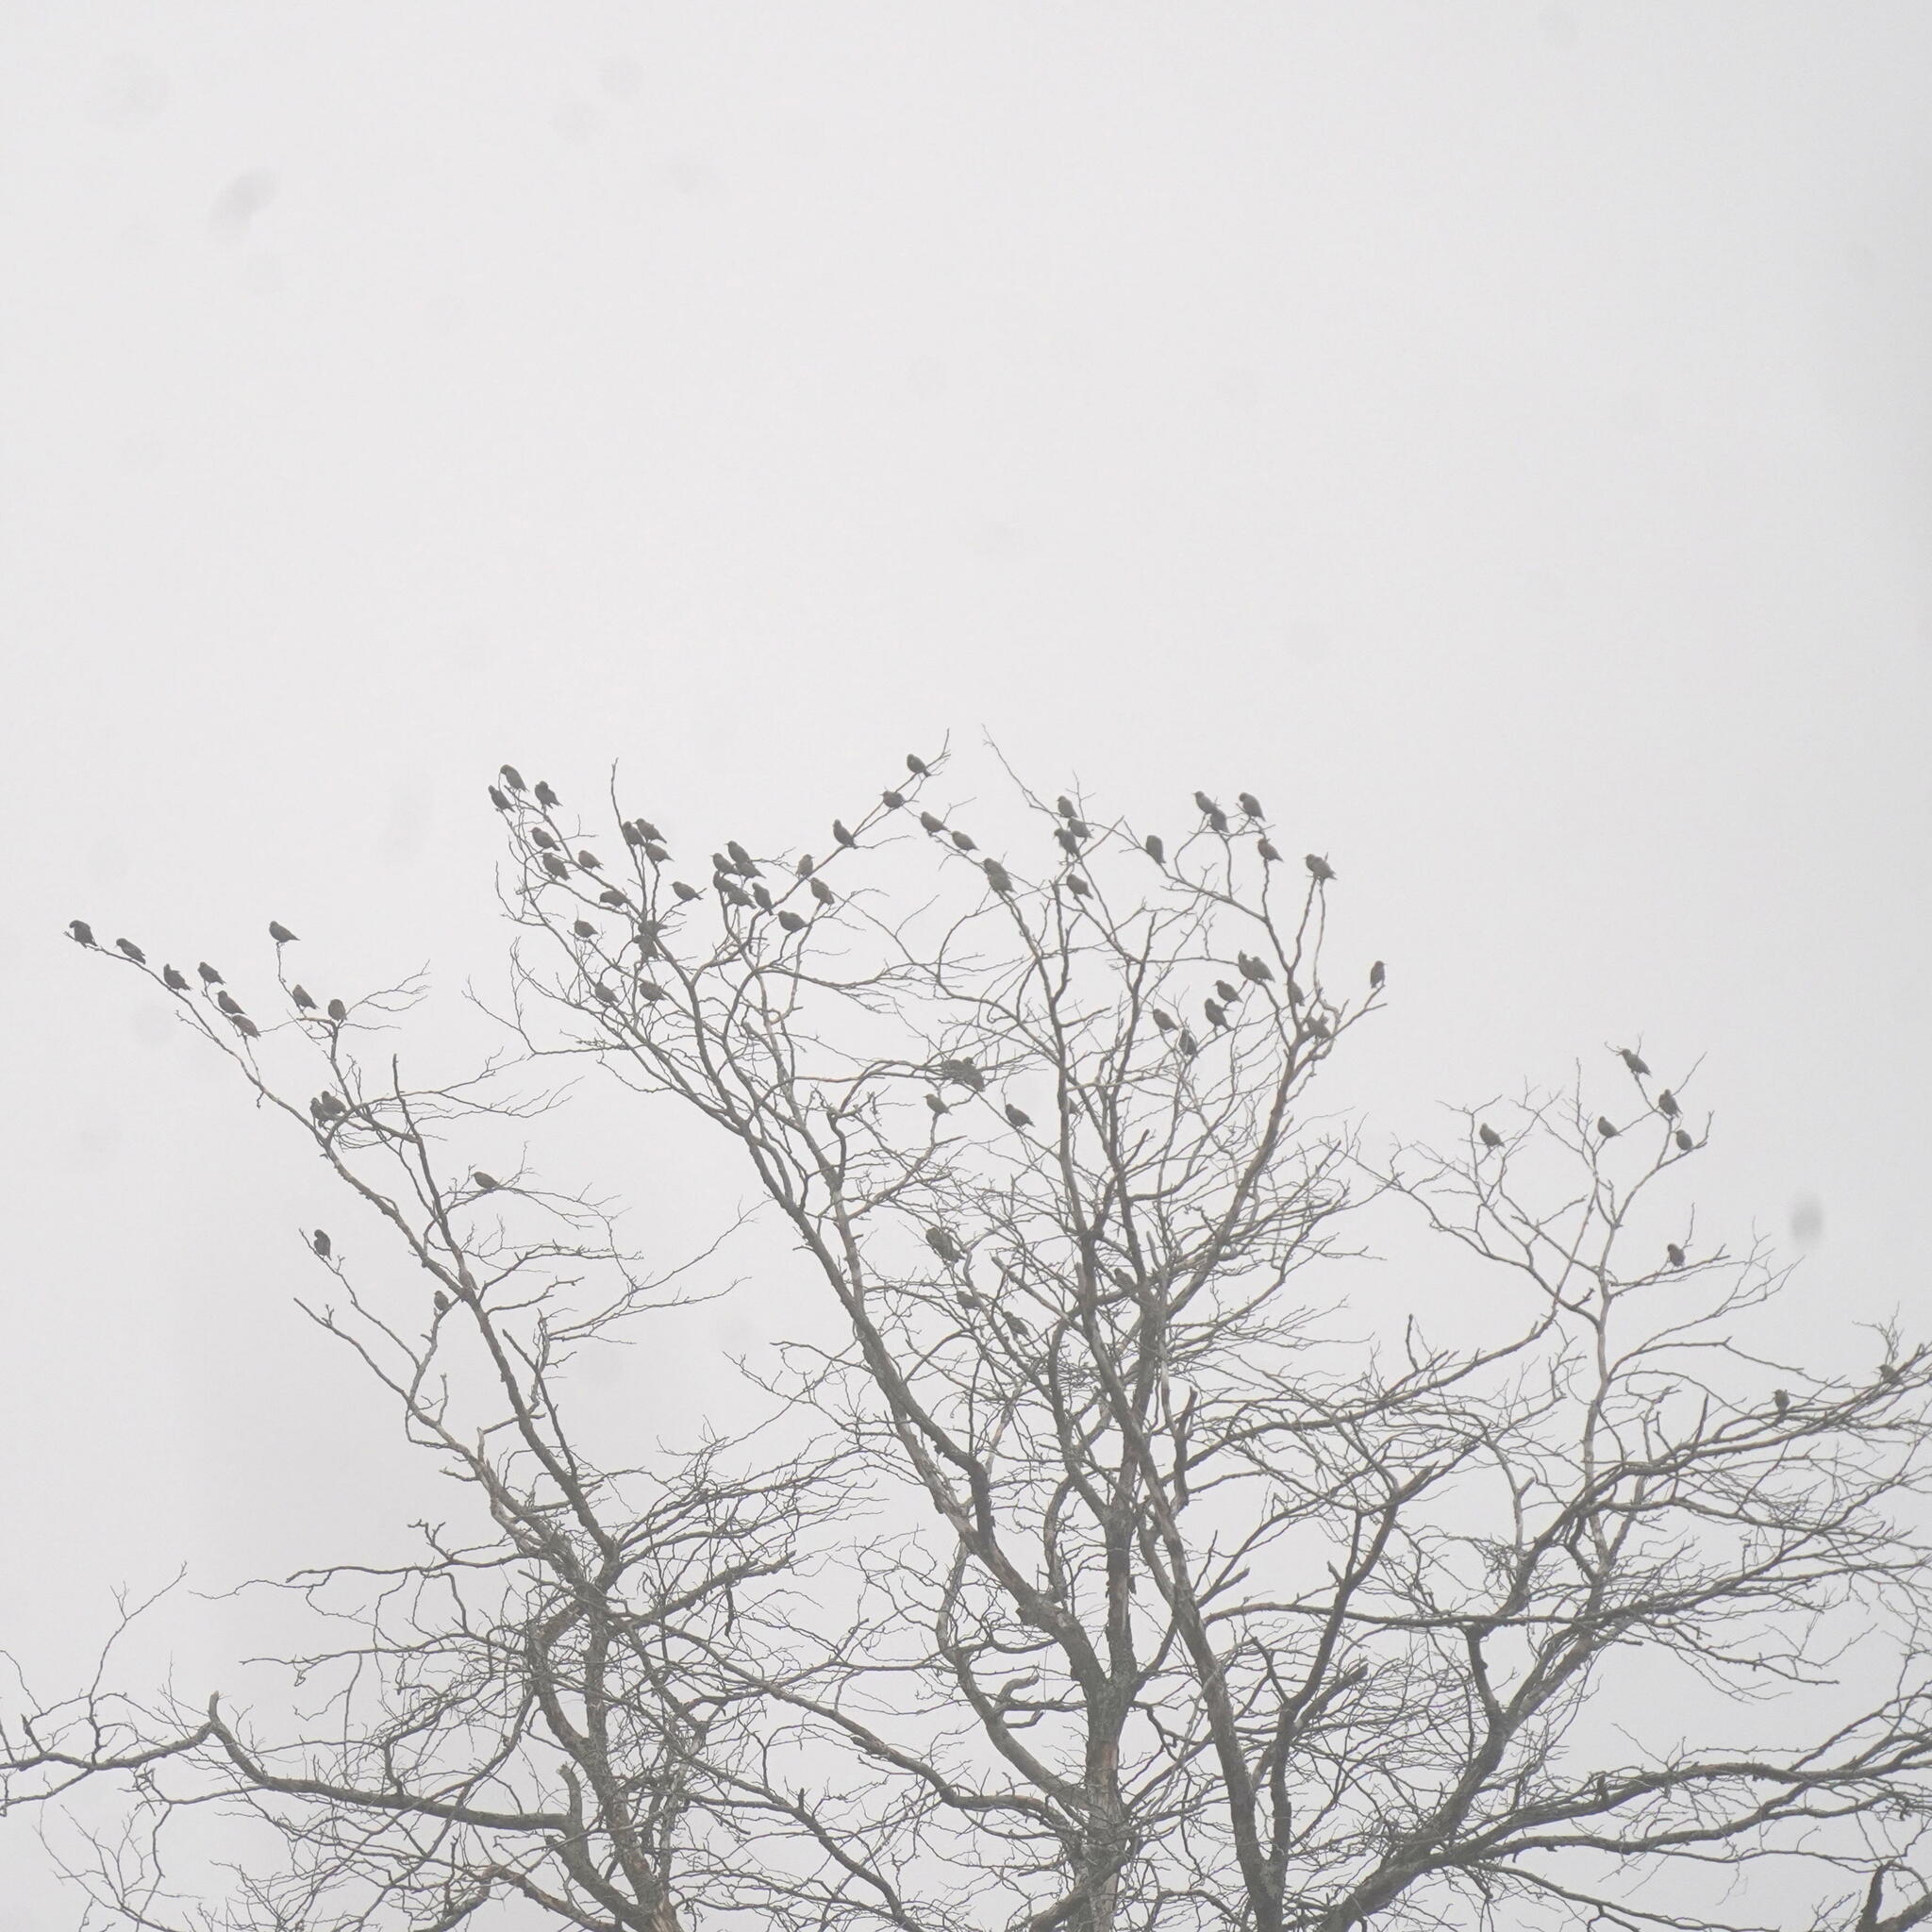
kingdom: Animalia
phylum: Chordata
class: Aves
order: Passeriformes
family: Sturnidae
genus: Sturnus
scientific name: Sturnus vulgaris
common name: Common starling
